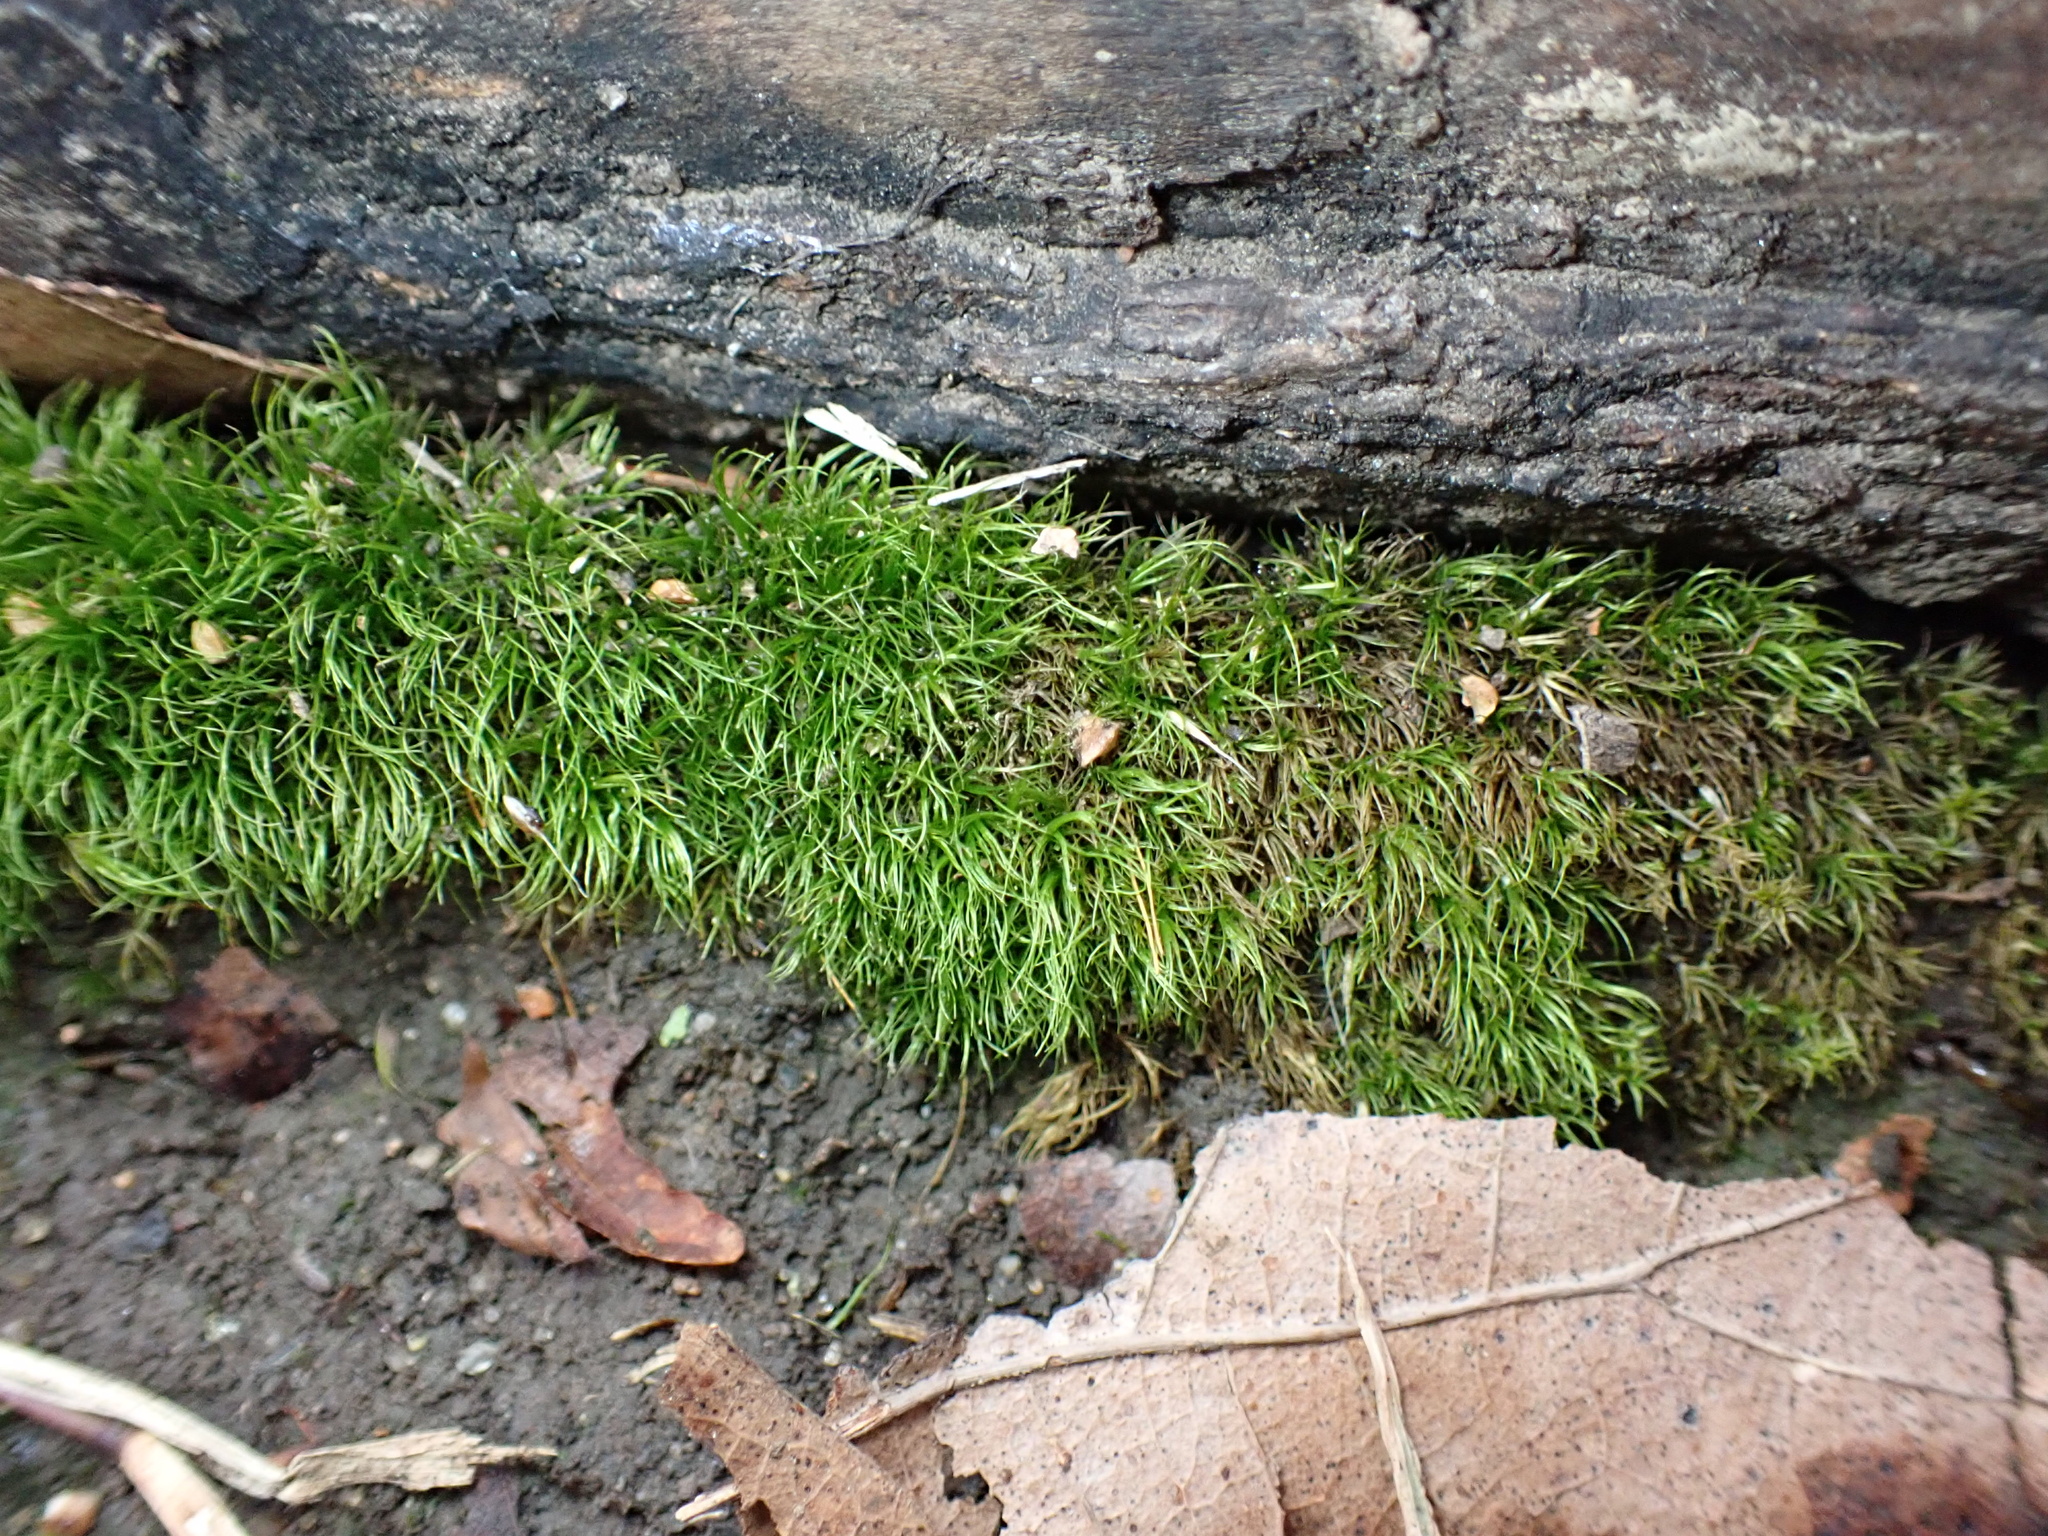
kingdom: Plantae
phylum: Bryophyta
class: Bryopsida
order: Dicranales
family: Dicranaceae
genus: Dicranum
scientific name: Dicranum scoparium
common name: Broom fork-moss
